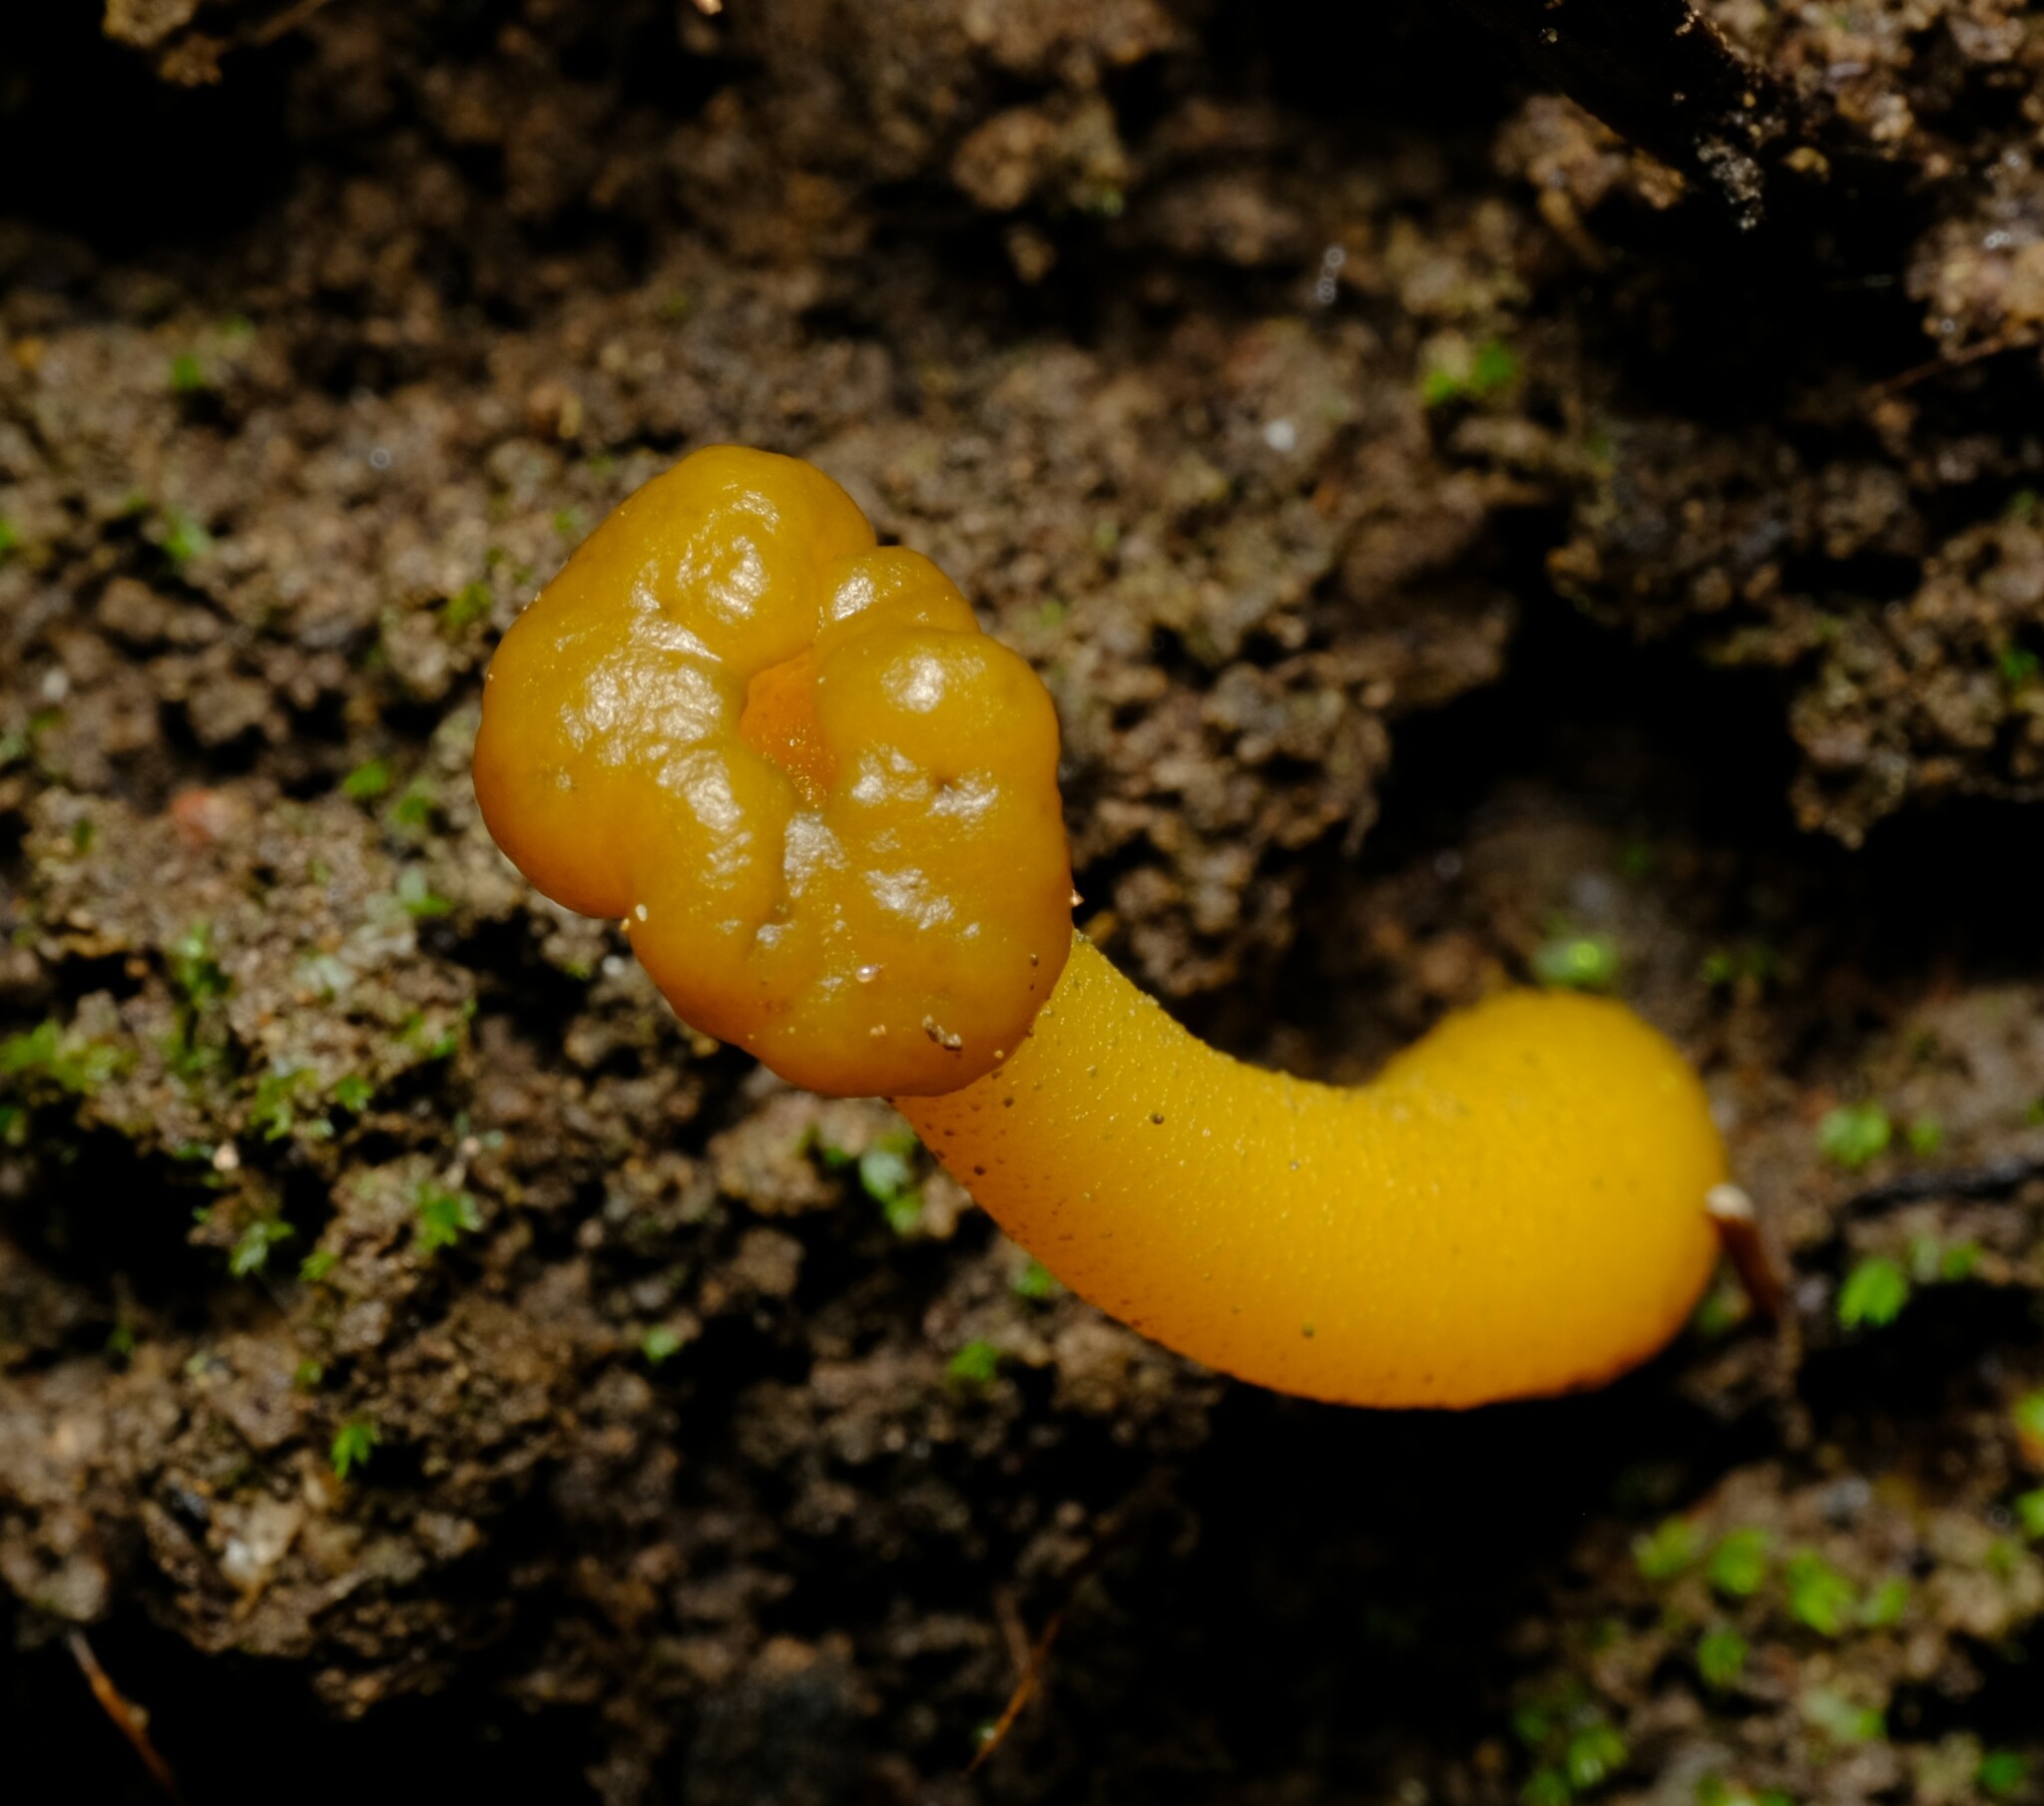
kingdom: Fungi
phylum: Ascomycota
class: Leotiomycetes
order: Leotiales
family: Leotiaceae
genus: Leotia
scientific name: Leotia lubrica
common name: Jellybaby
